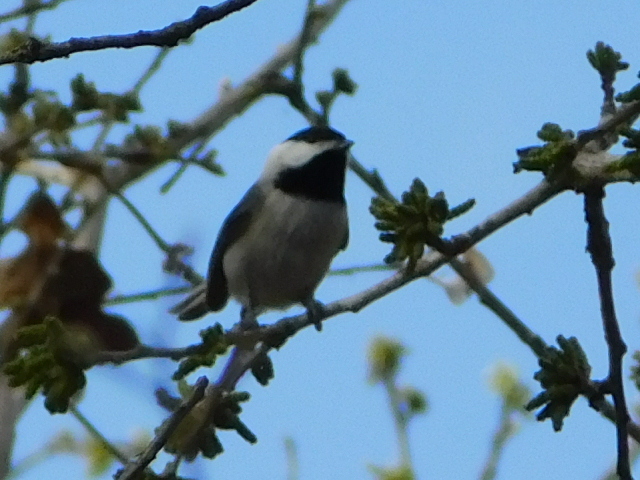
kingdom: Animalia
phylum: Chordata
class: Aves
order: Passeriformes
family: Paridae
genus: Poecile
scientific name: Poecile carolinensis
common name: Carolina chickadee
